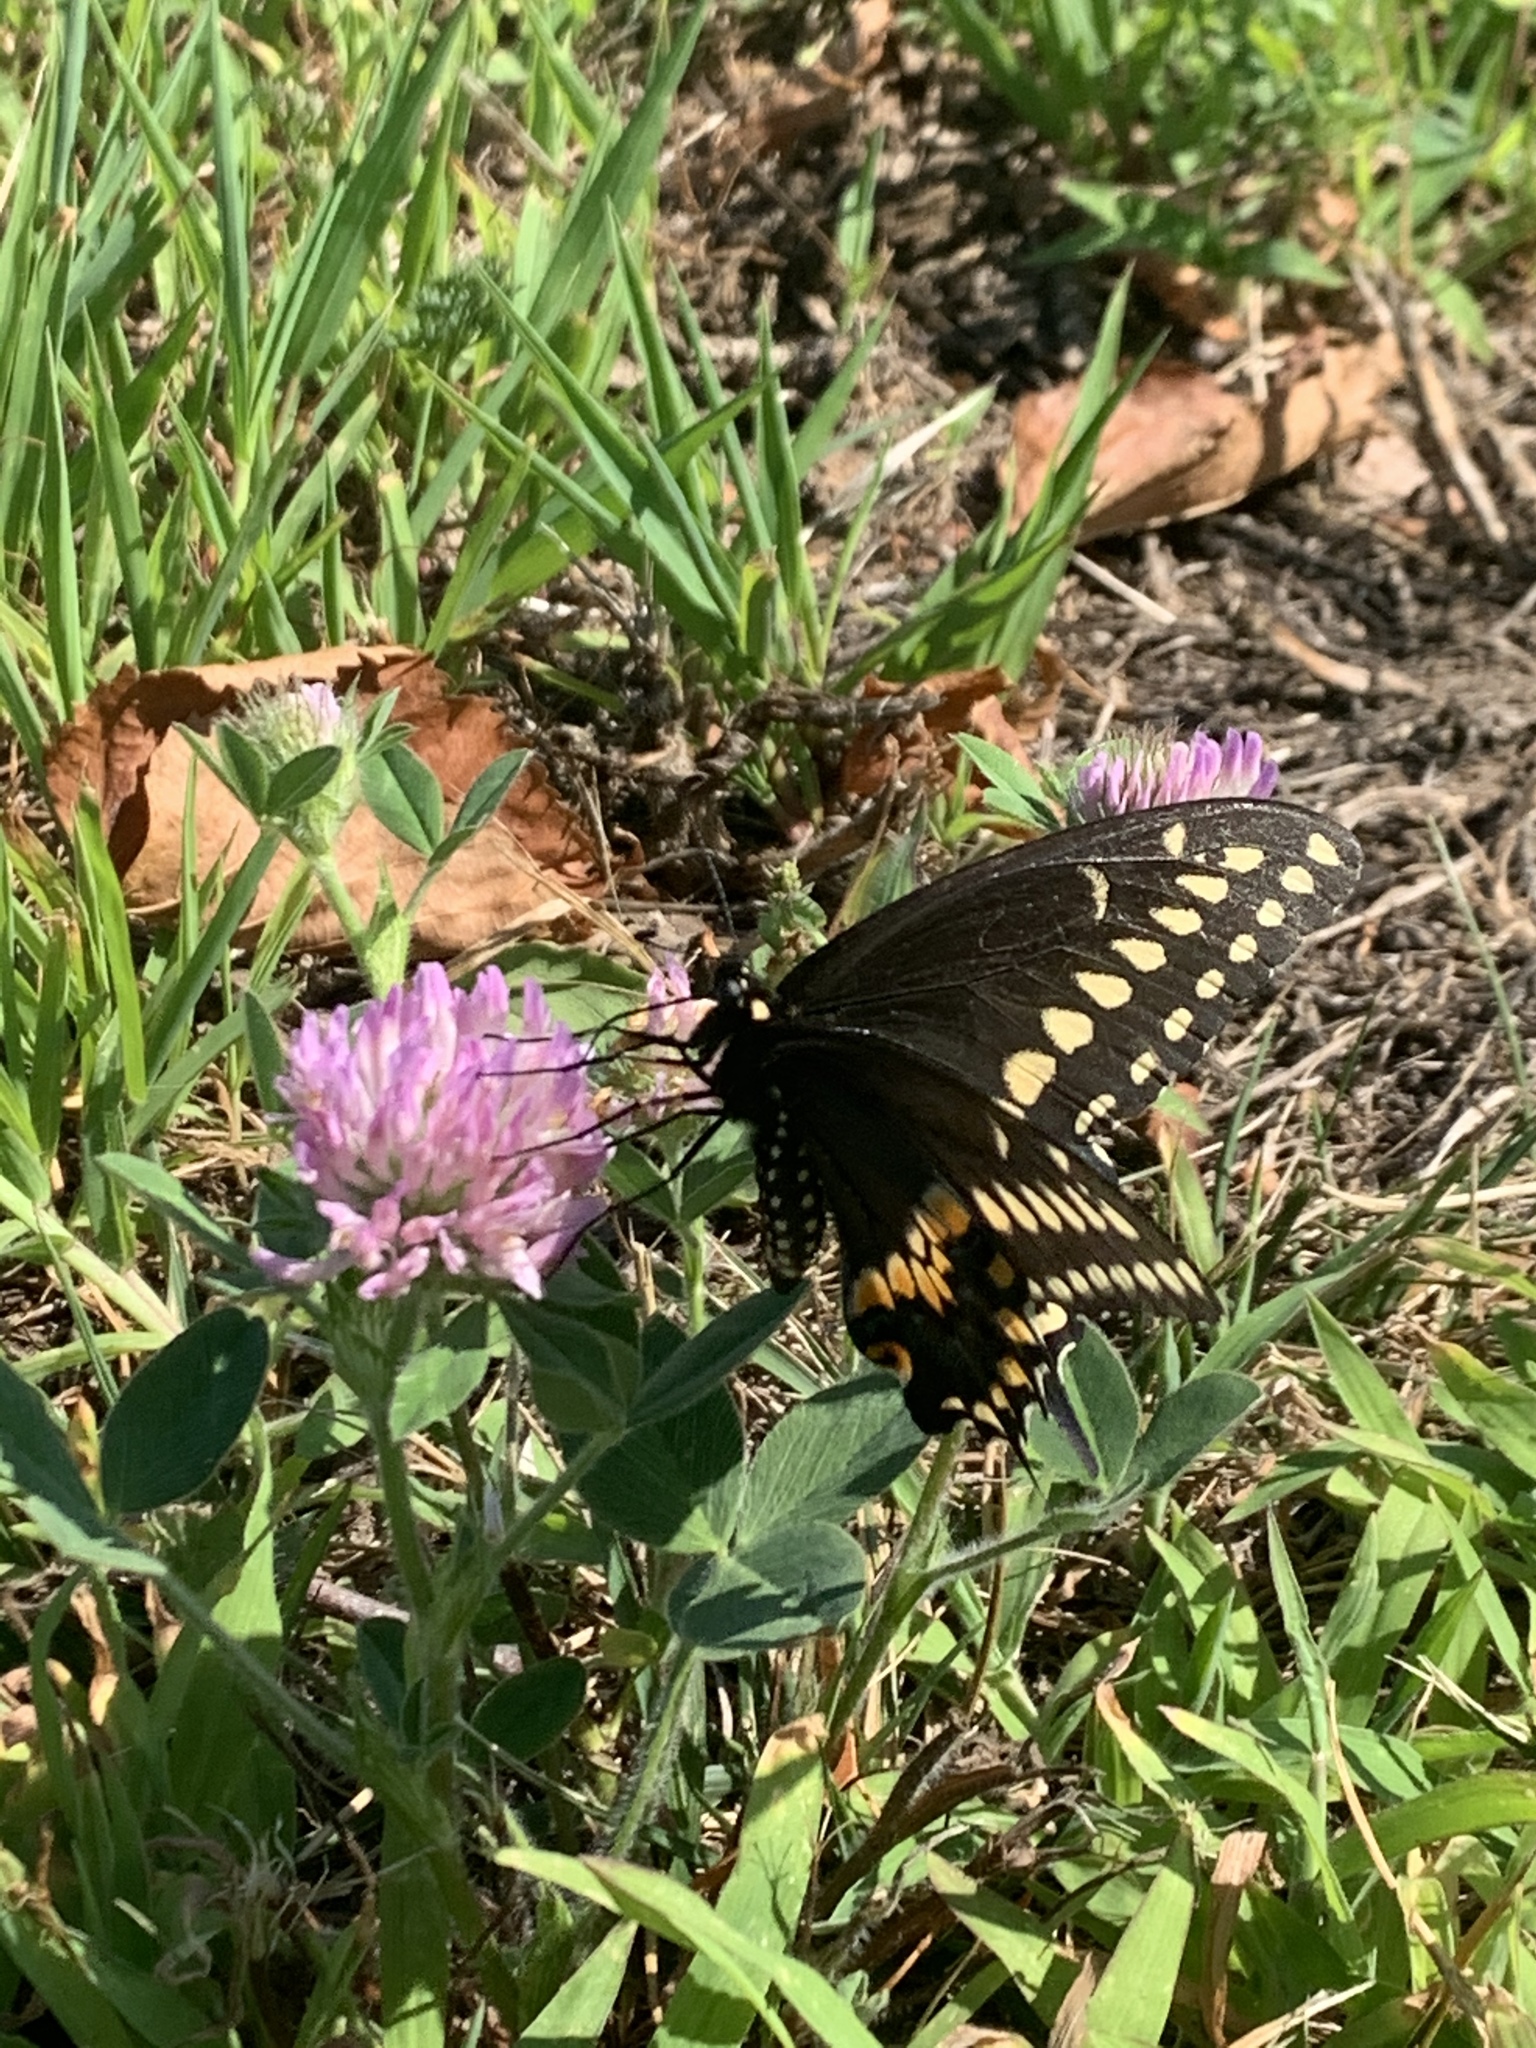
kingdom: Animalia
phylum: Arthropoda
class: Insecta
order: Lepidoptera
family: Papilionidae
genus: Papilio
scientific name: Papilio polyxenes
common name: Black swallowtail
